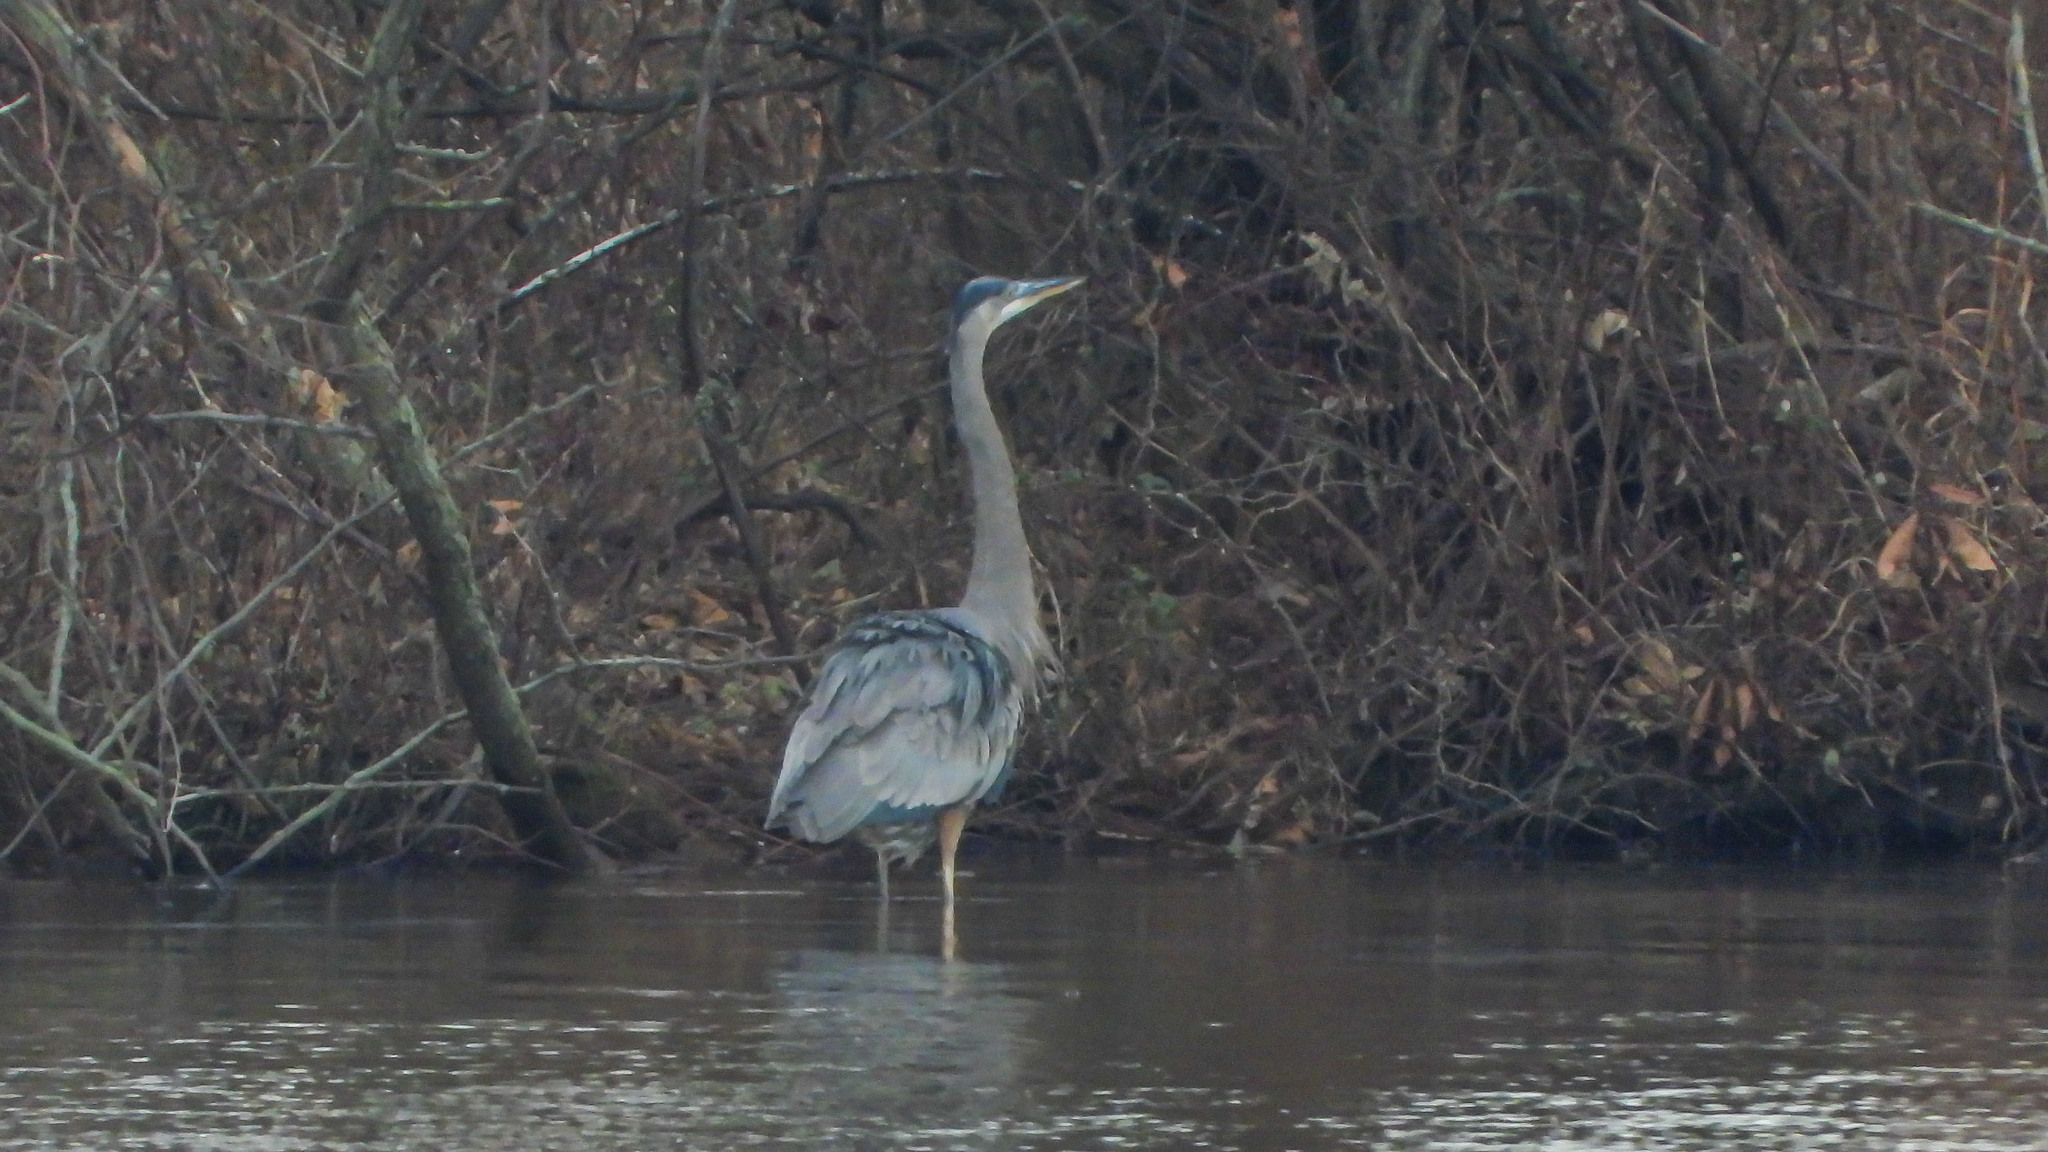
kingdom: Animalia
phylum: Chordata
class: Aves
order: Pelecaniformes
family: Ardeidae
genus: Ardea
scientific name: Ardea herodias
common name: Great blue heron
